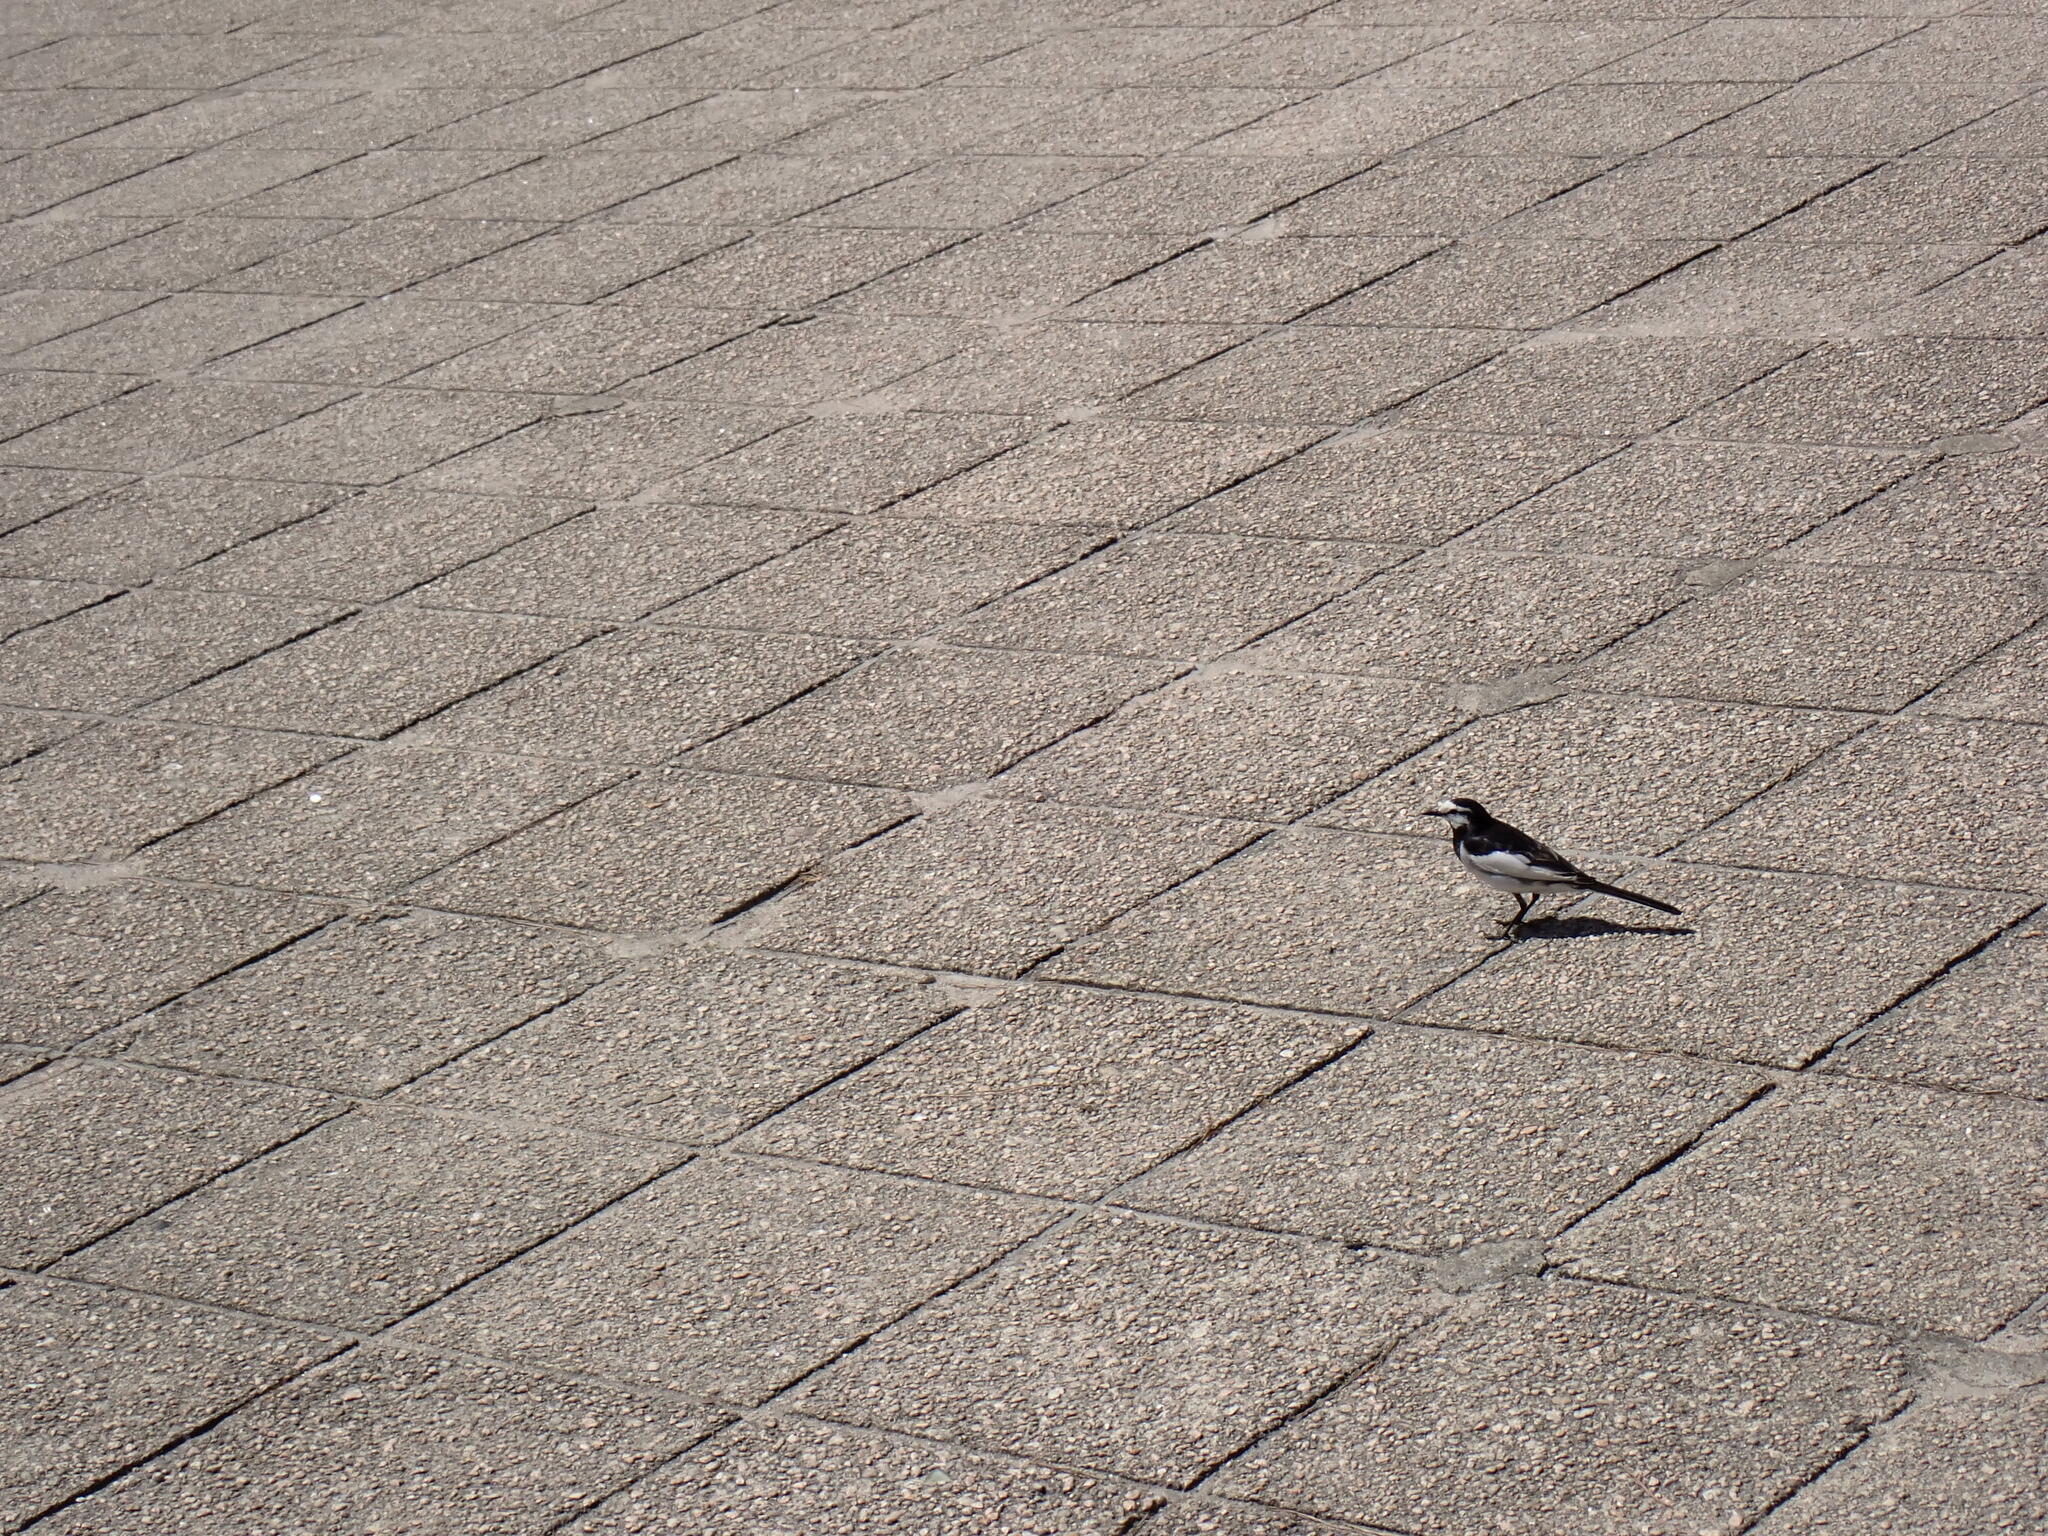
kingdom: Animalia
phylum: Chordata
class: Aves
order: Passeriformes
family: Motacillidae
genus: Motacilla
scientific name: Motacilla alba
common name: White wagtail
